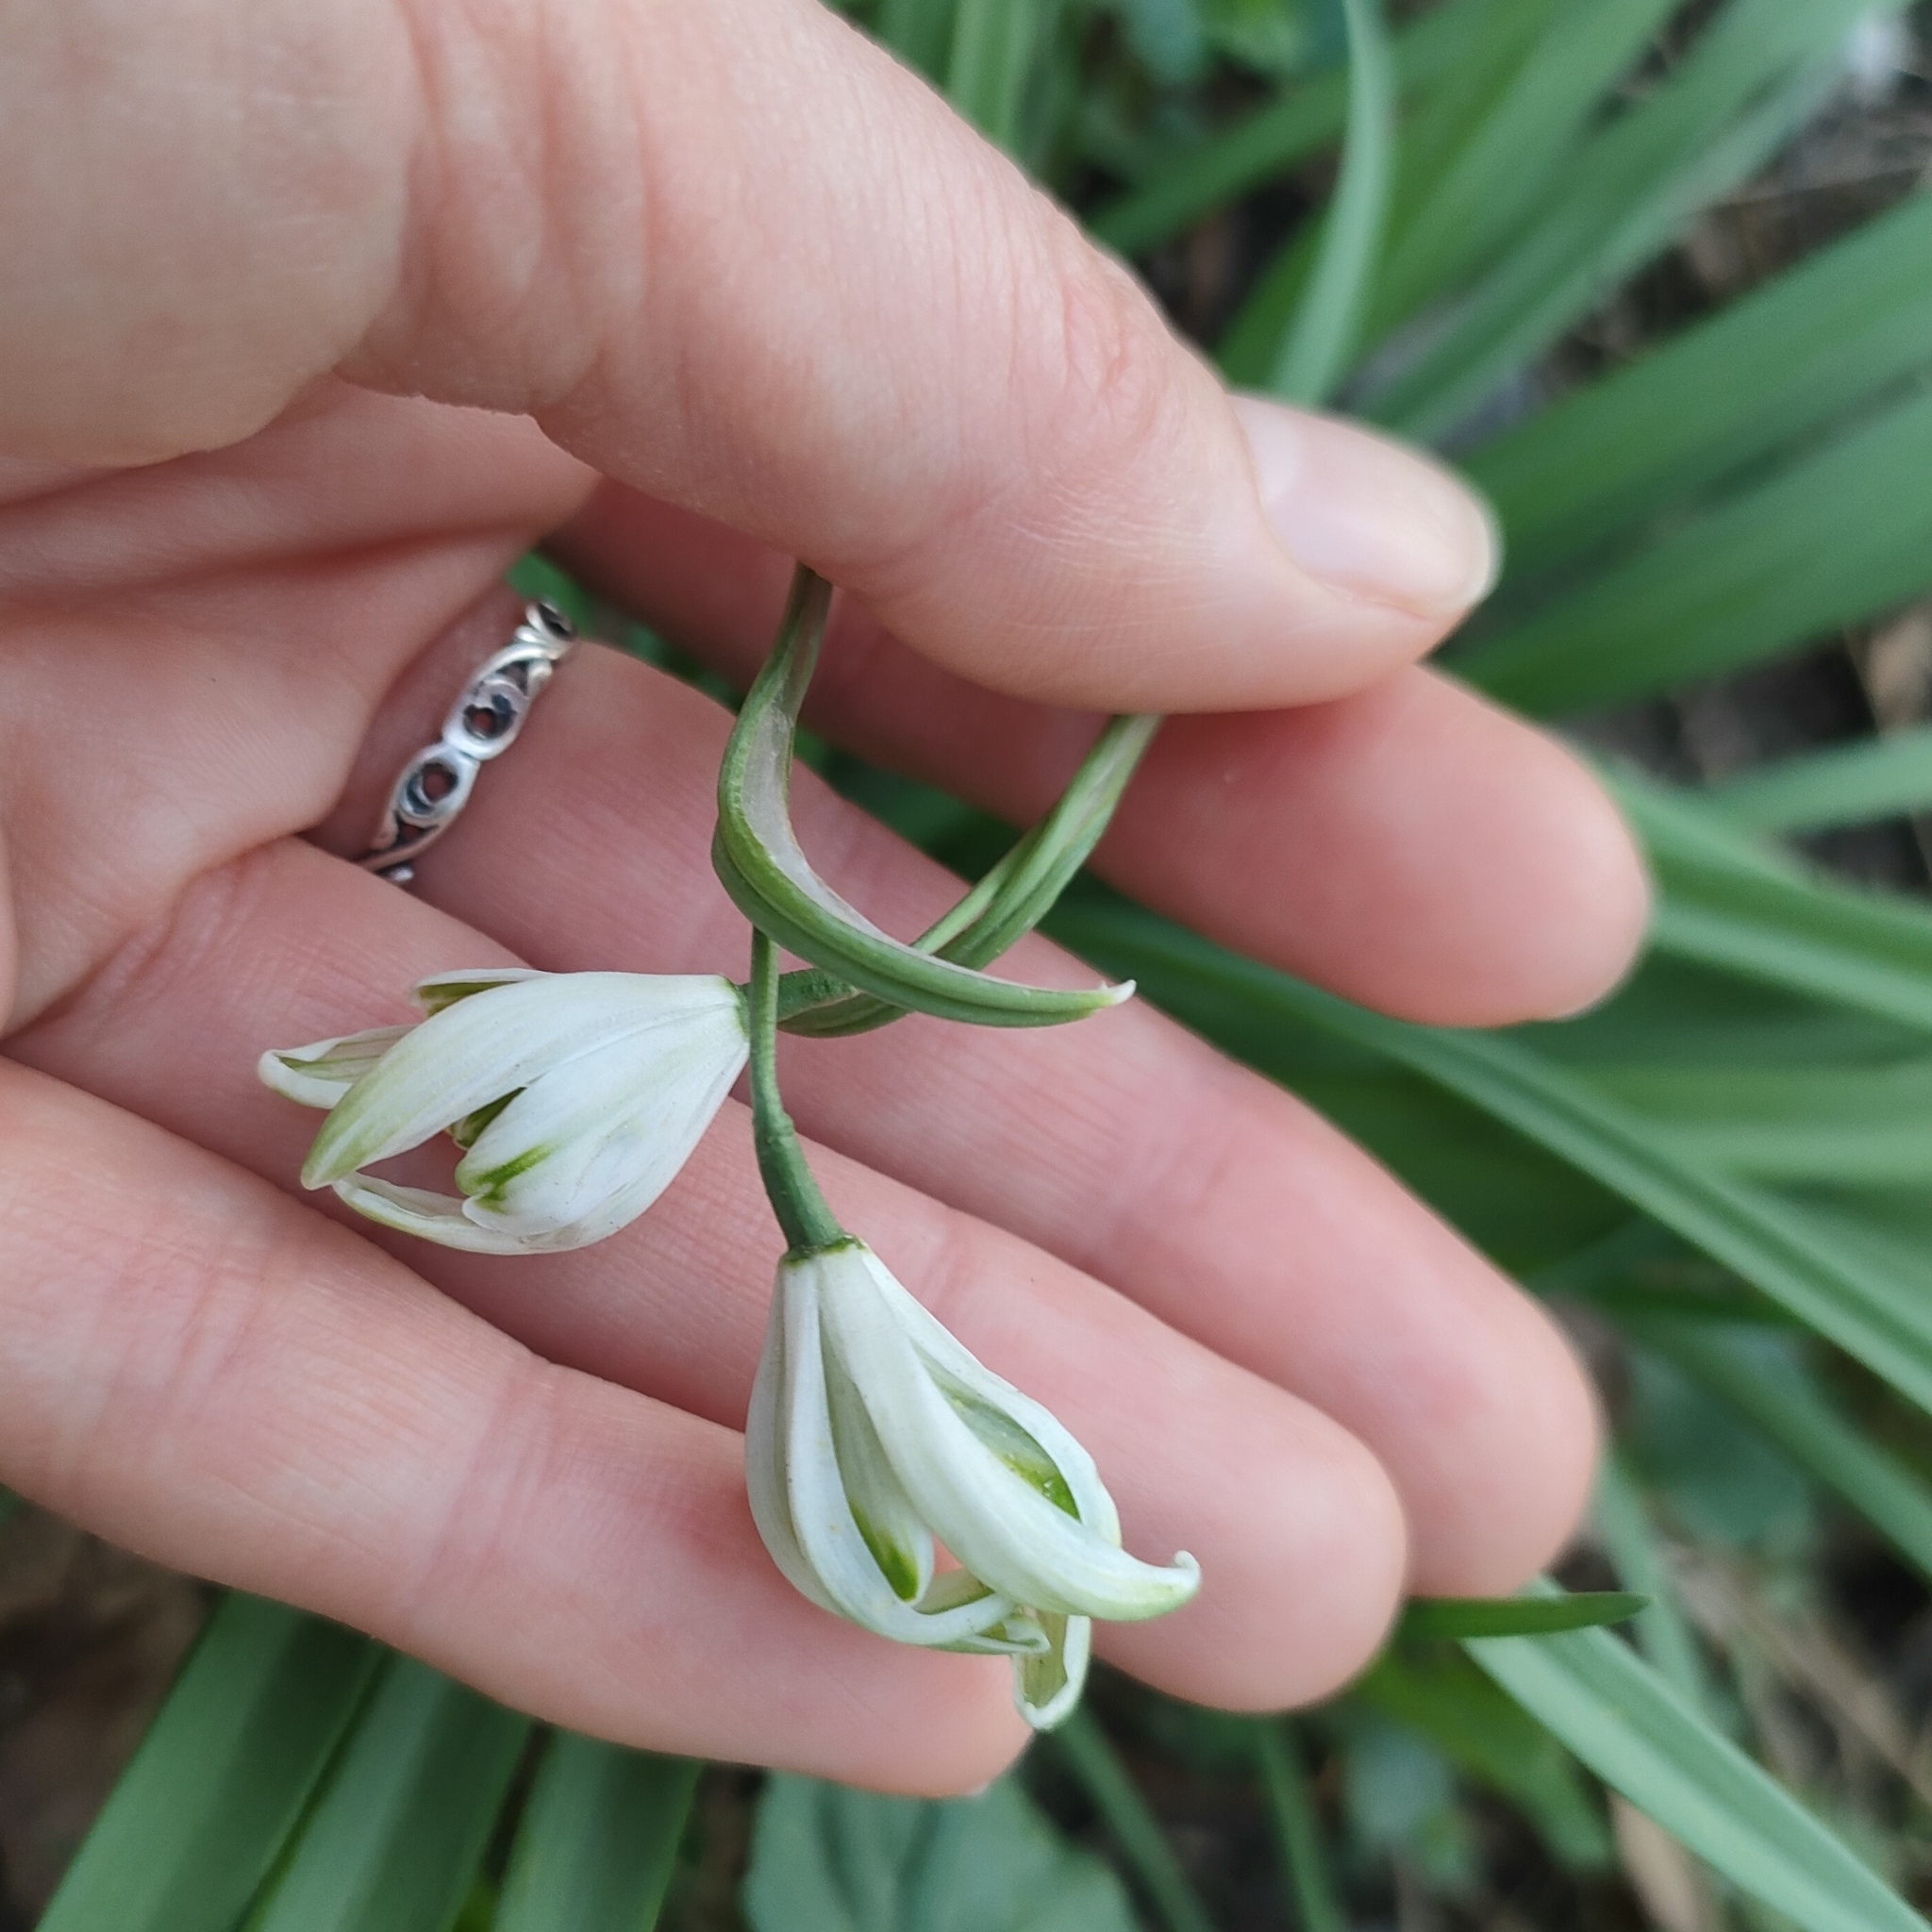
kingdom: Plantae
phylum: Tracheophyta
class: Liliopsida
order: Asparagales
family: Amaryllidaceae
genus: Galanthus
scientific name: Galanthus nivalis
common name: Snowdrop
